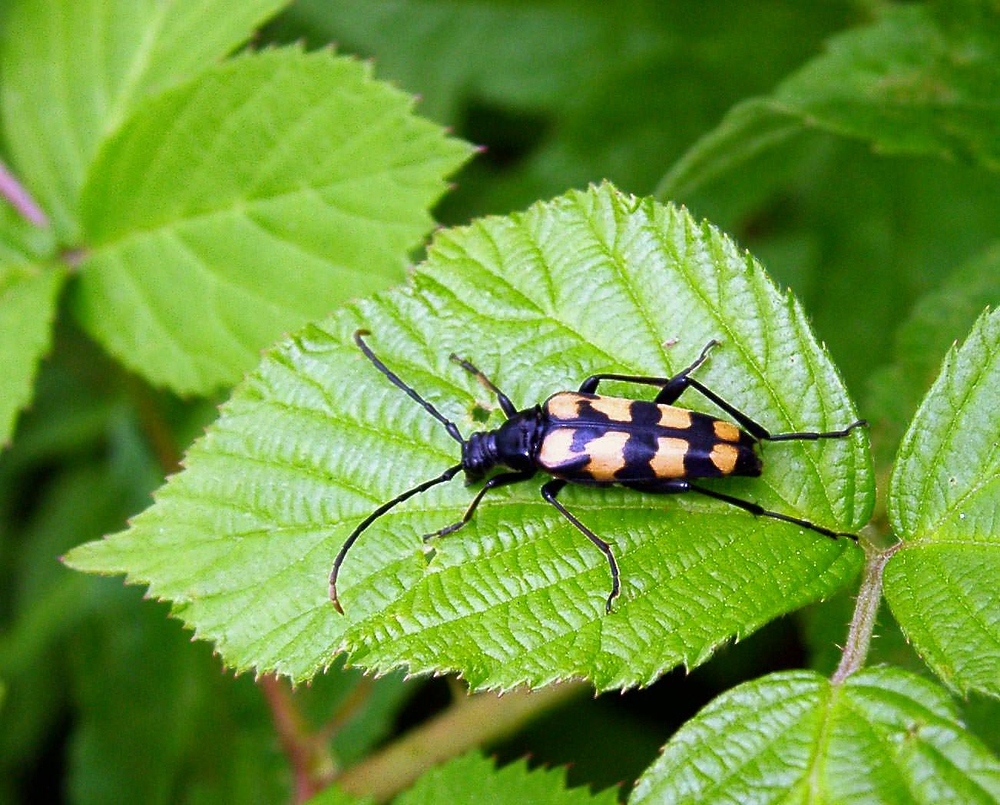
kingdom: Animalia
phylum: Arthropoda
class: Insecta
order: Coleoptera
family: Cerambycidae
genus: Leptura
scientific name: Leptura quadrifasciata
